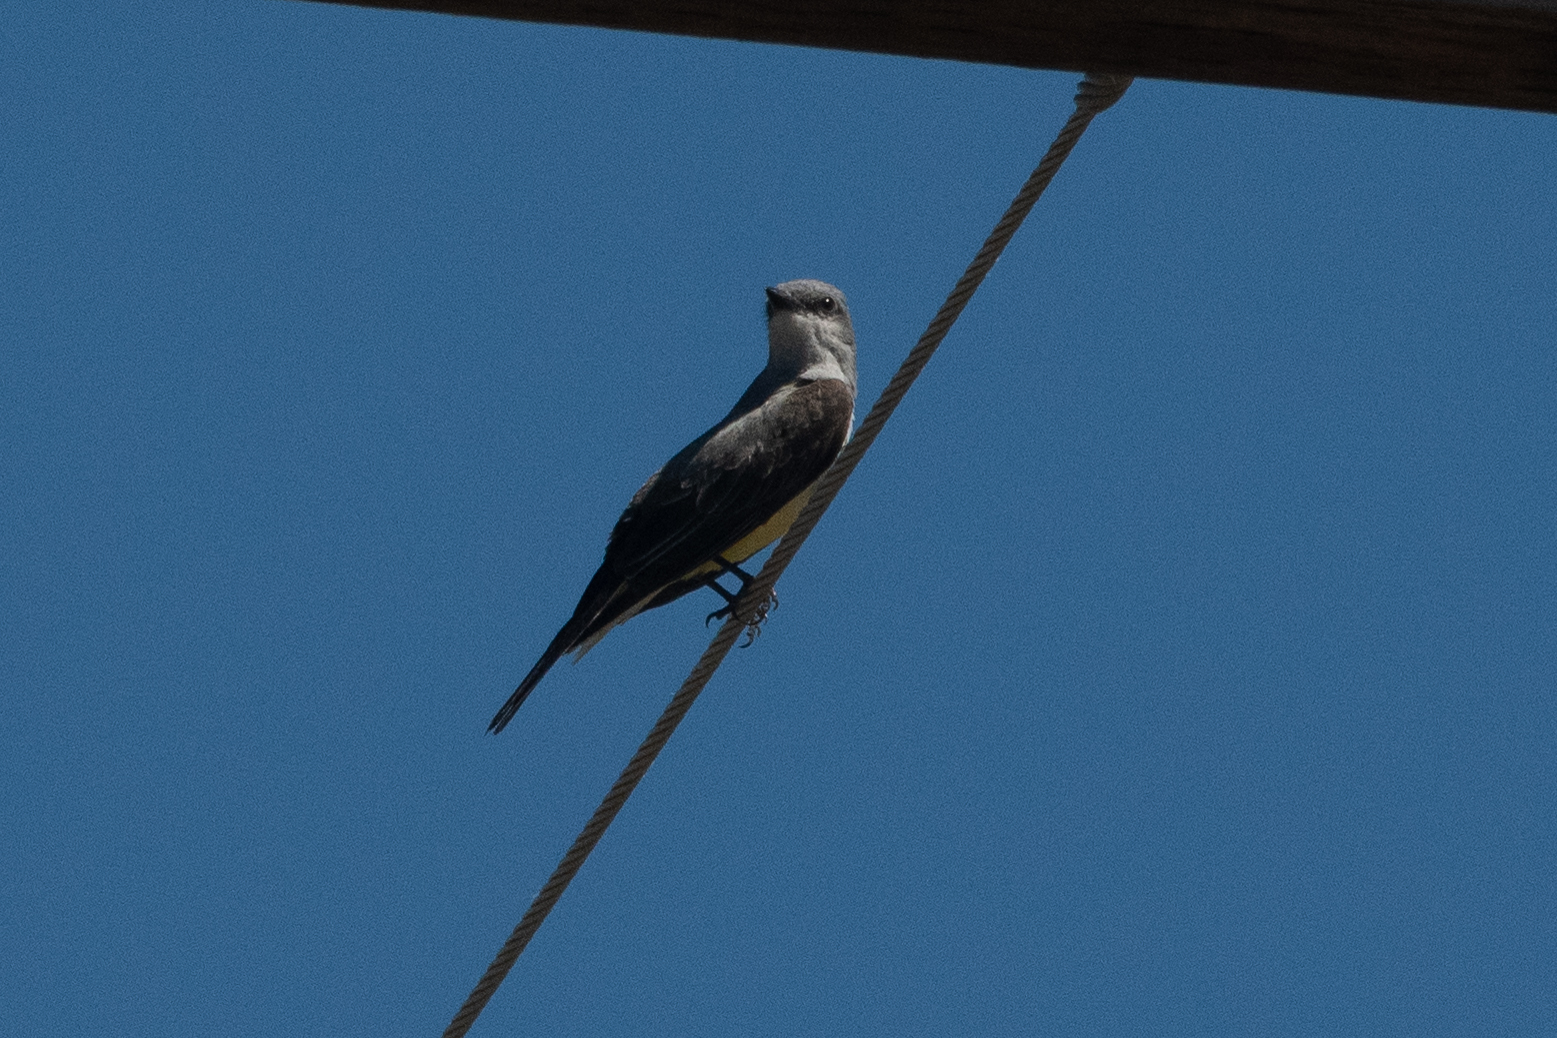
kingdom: Animalia
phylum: Chordata
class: Aves
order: Passeriformes
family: Tyrannidae
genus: Tyrannus
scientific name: Tyrannus verticalis
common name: Western kingbird
